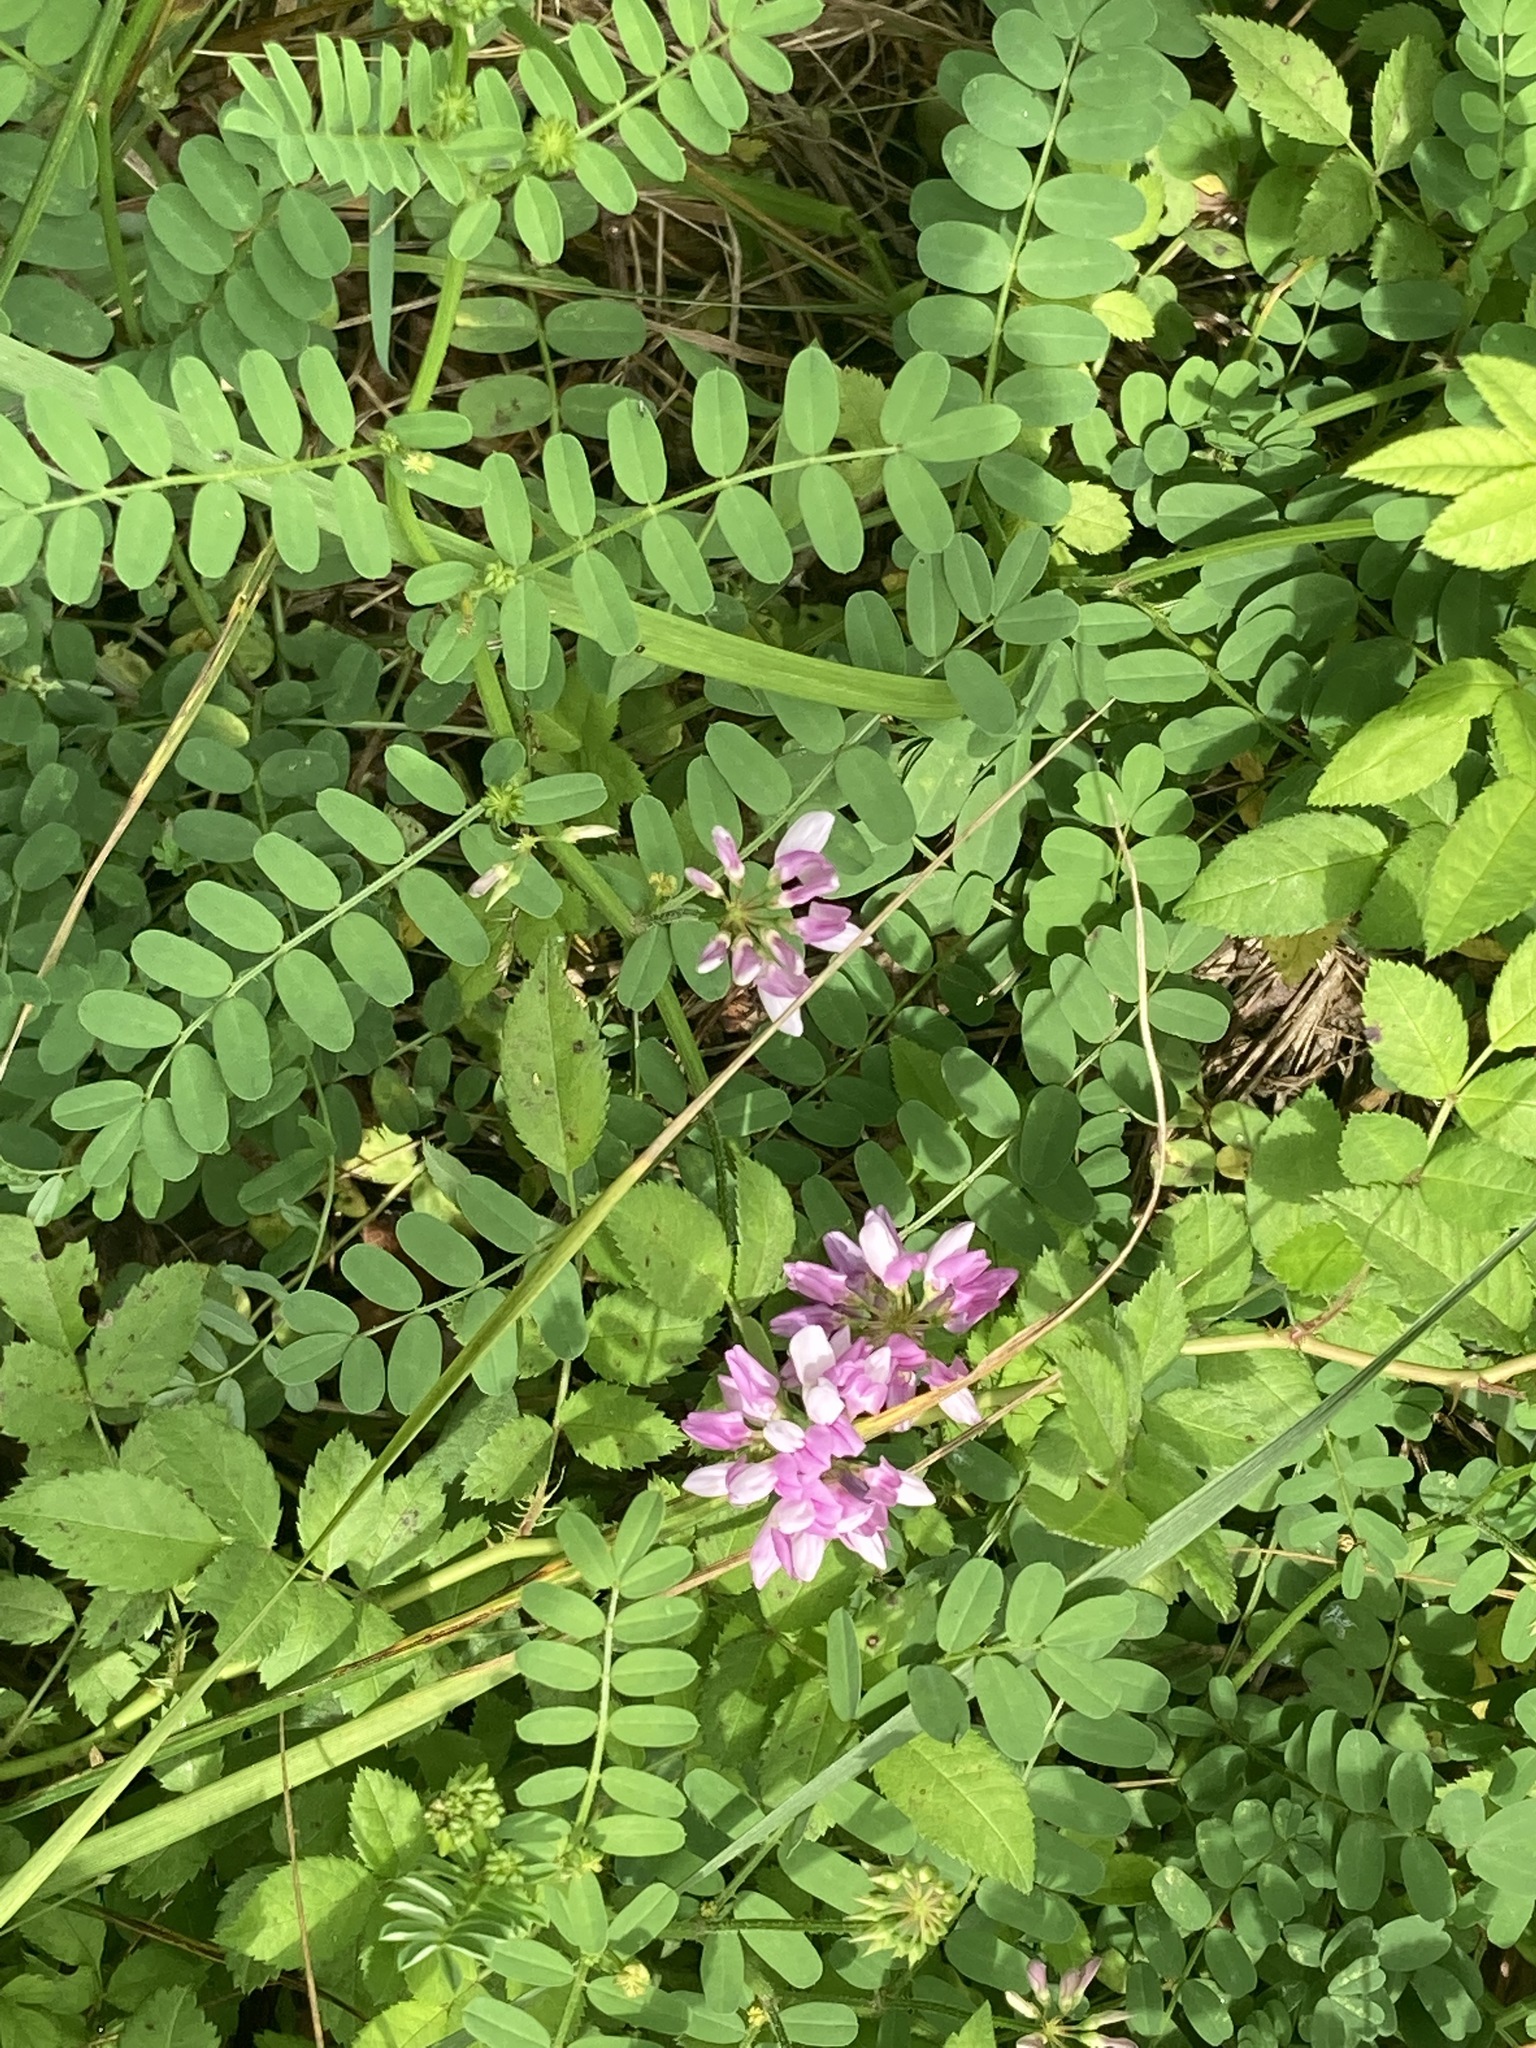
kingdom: Plantae
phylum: Tracheophyta
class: Magnoliopsida
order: Fabales
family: Fabaceae
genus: Coronilla
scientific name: Coronilla varia
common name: Crownvetch
